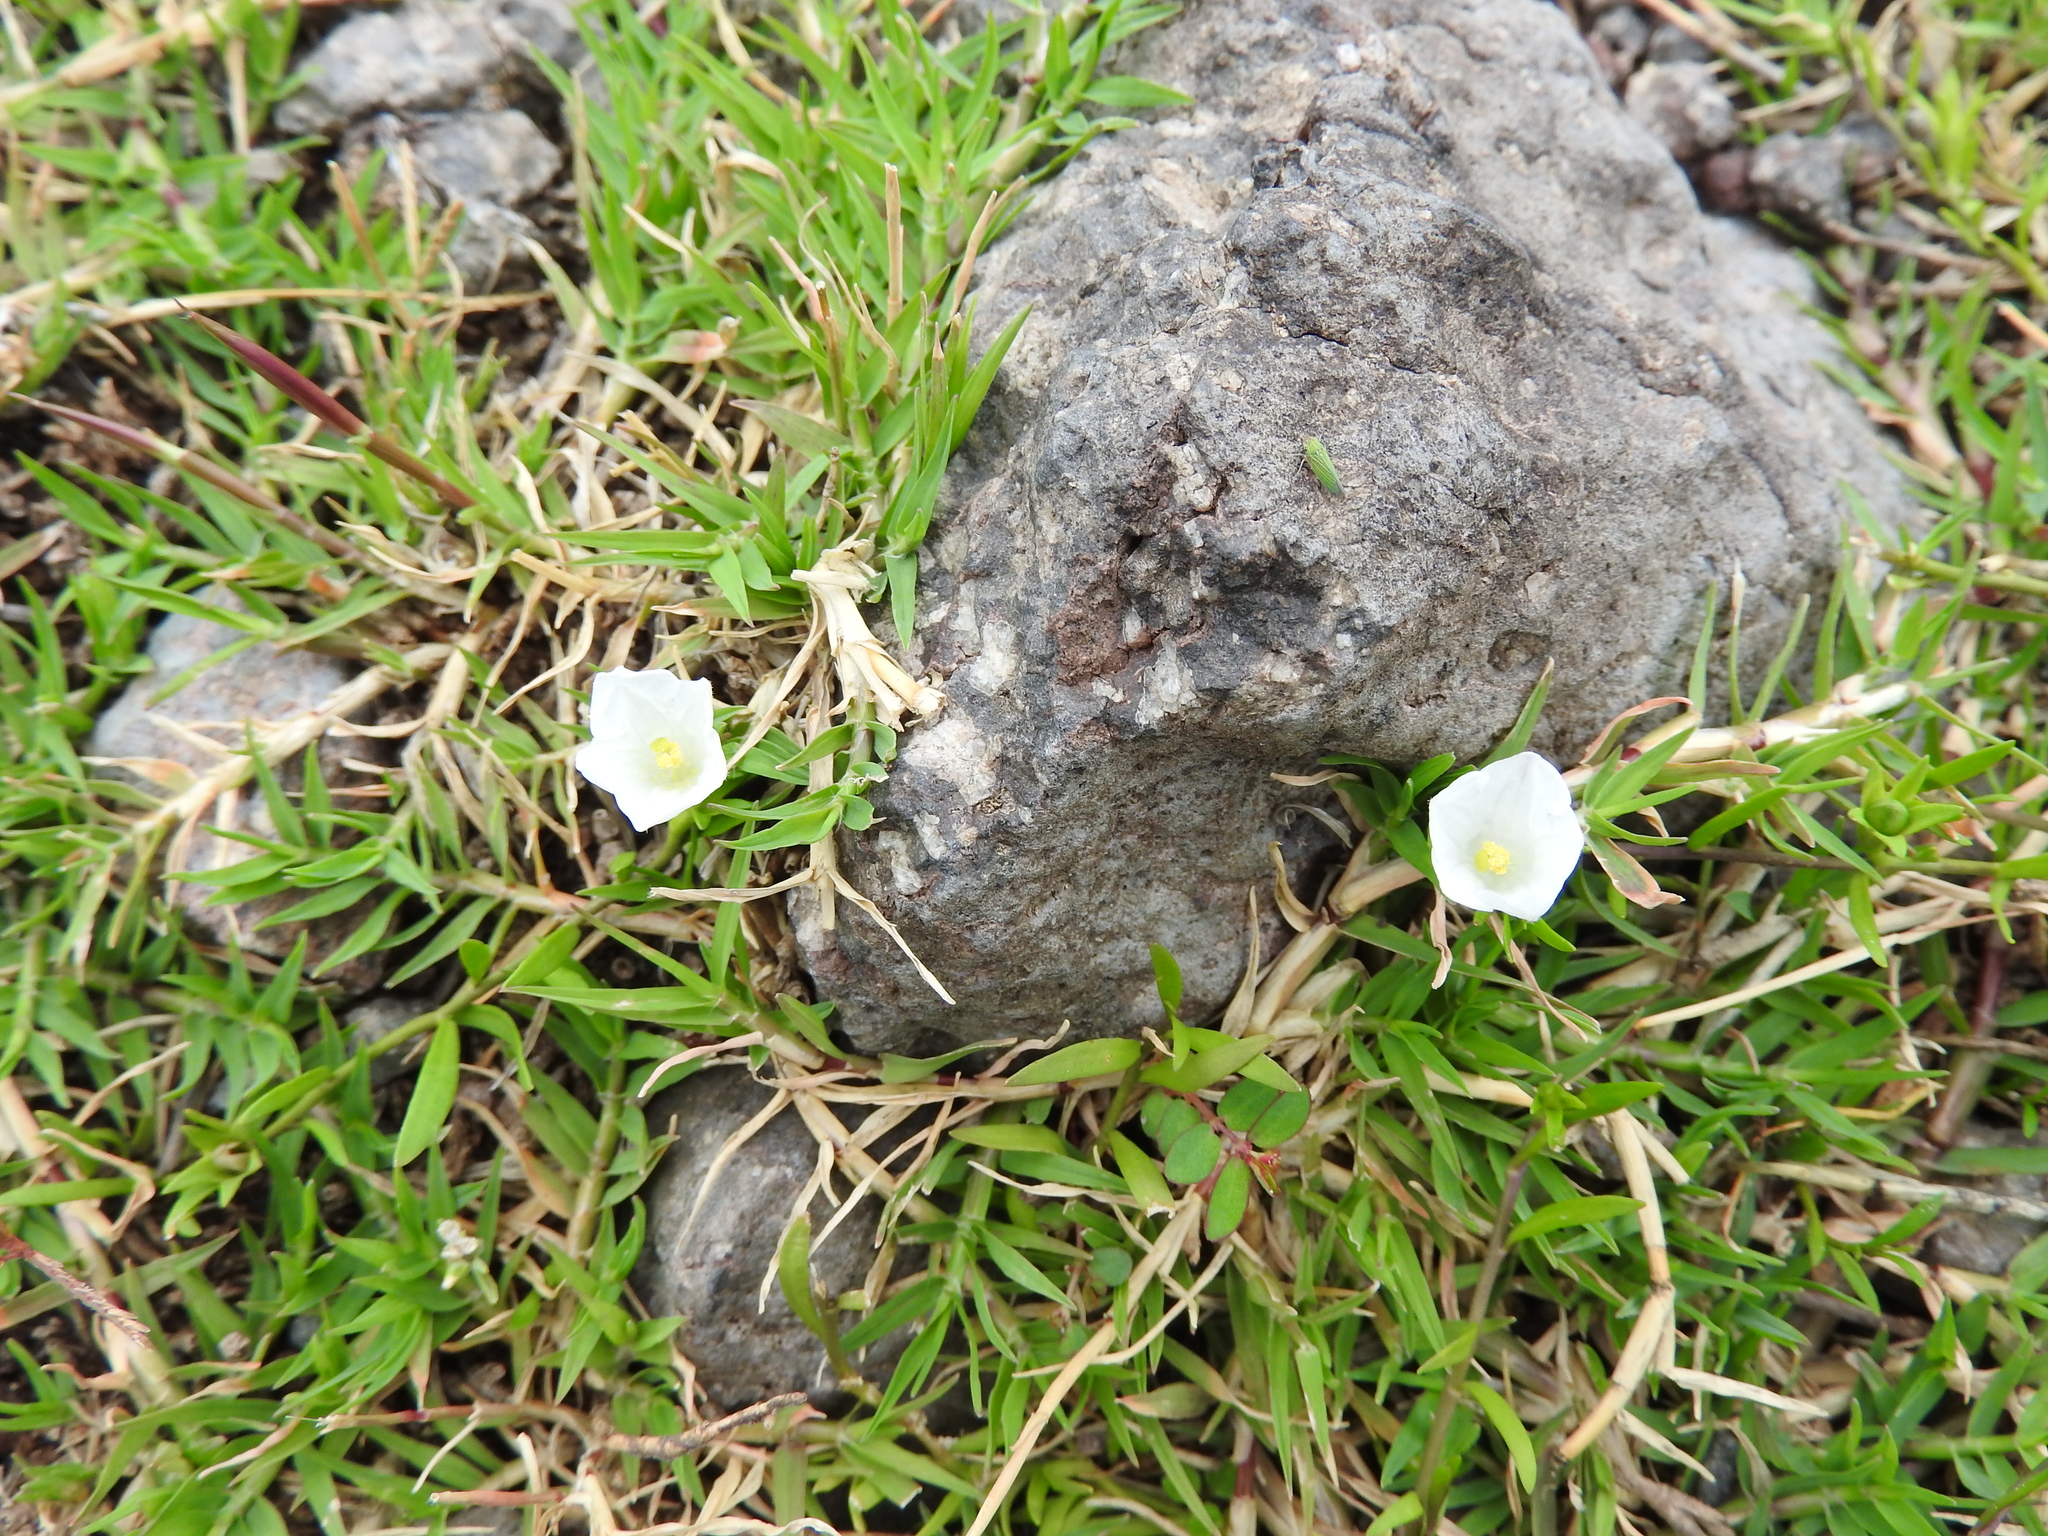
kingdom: Plantae
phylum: Tracheophyta
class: Magnoliopsida
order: Solanales
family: Solanaceae
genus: Salpiglossis
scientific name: Salpiglossis erecta
